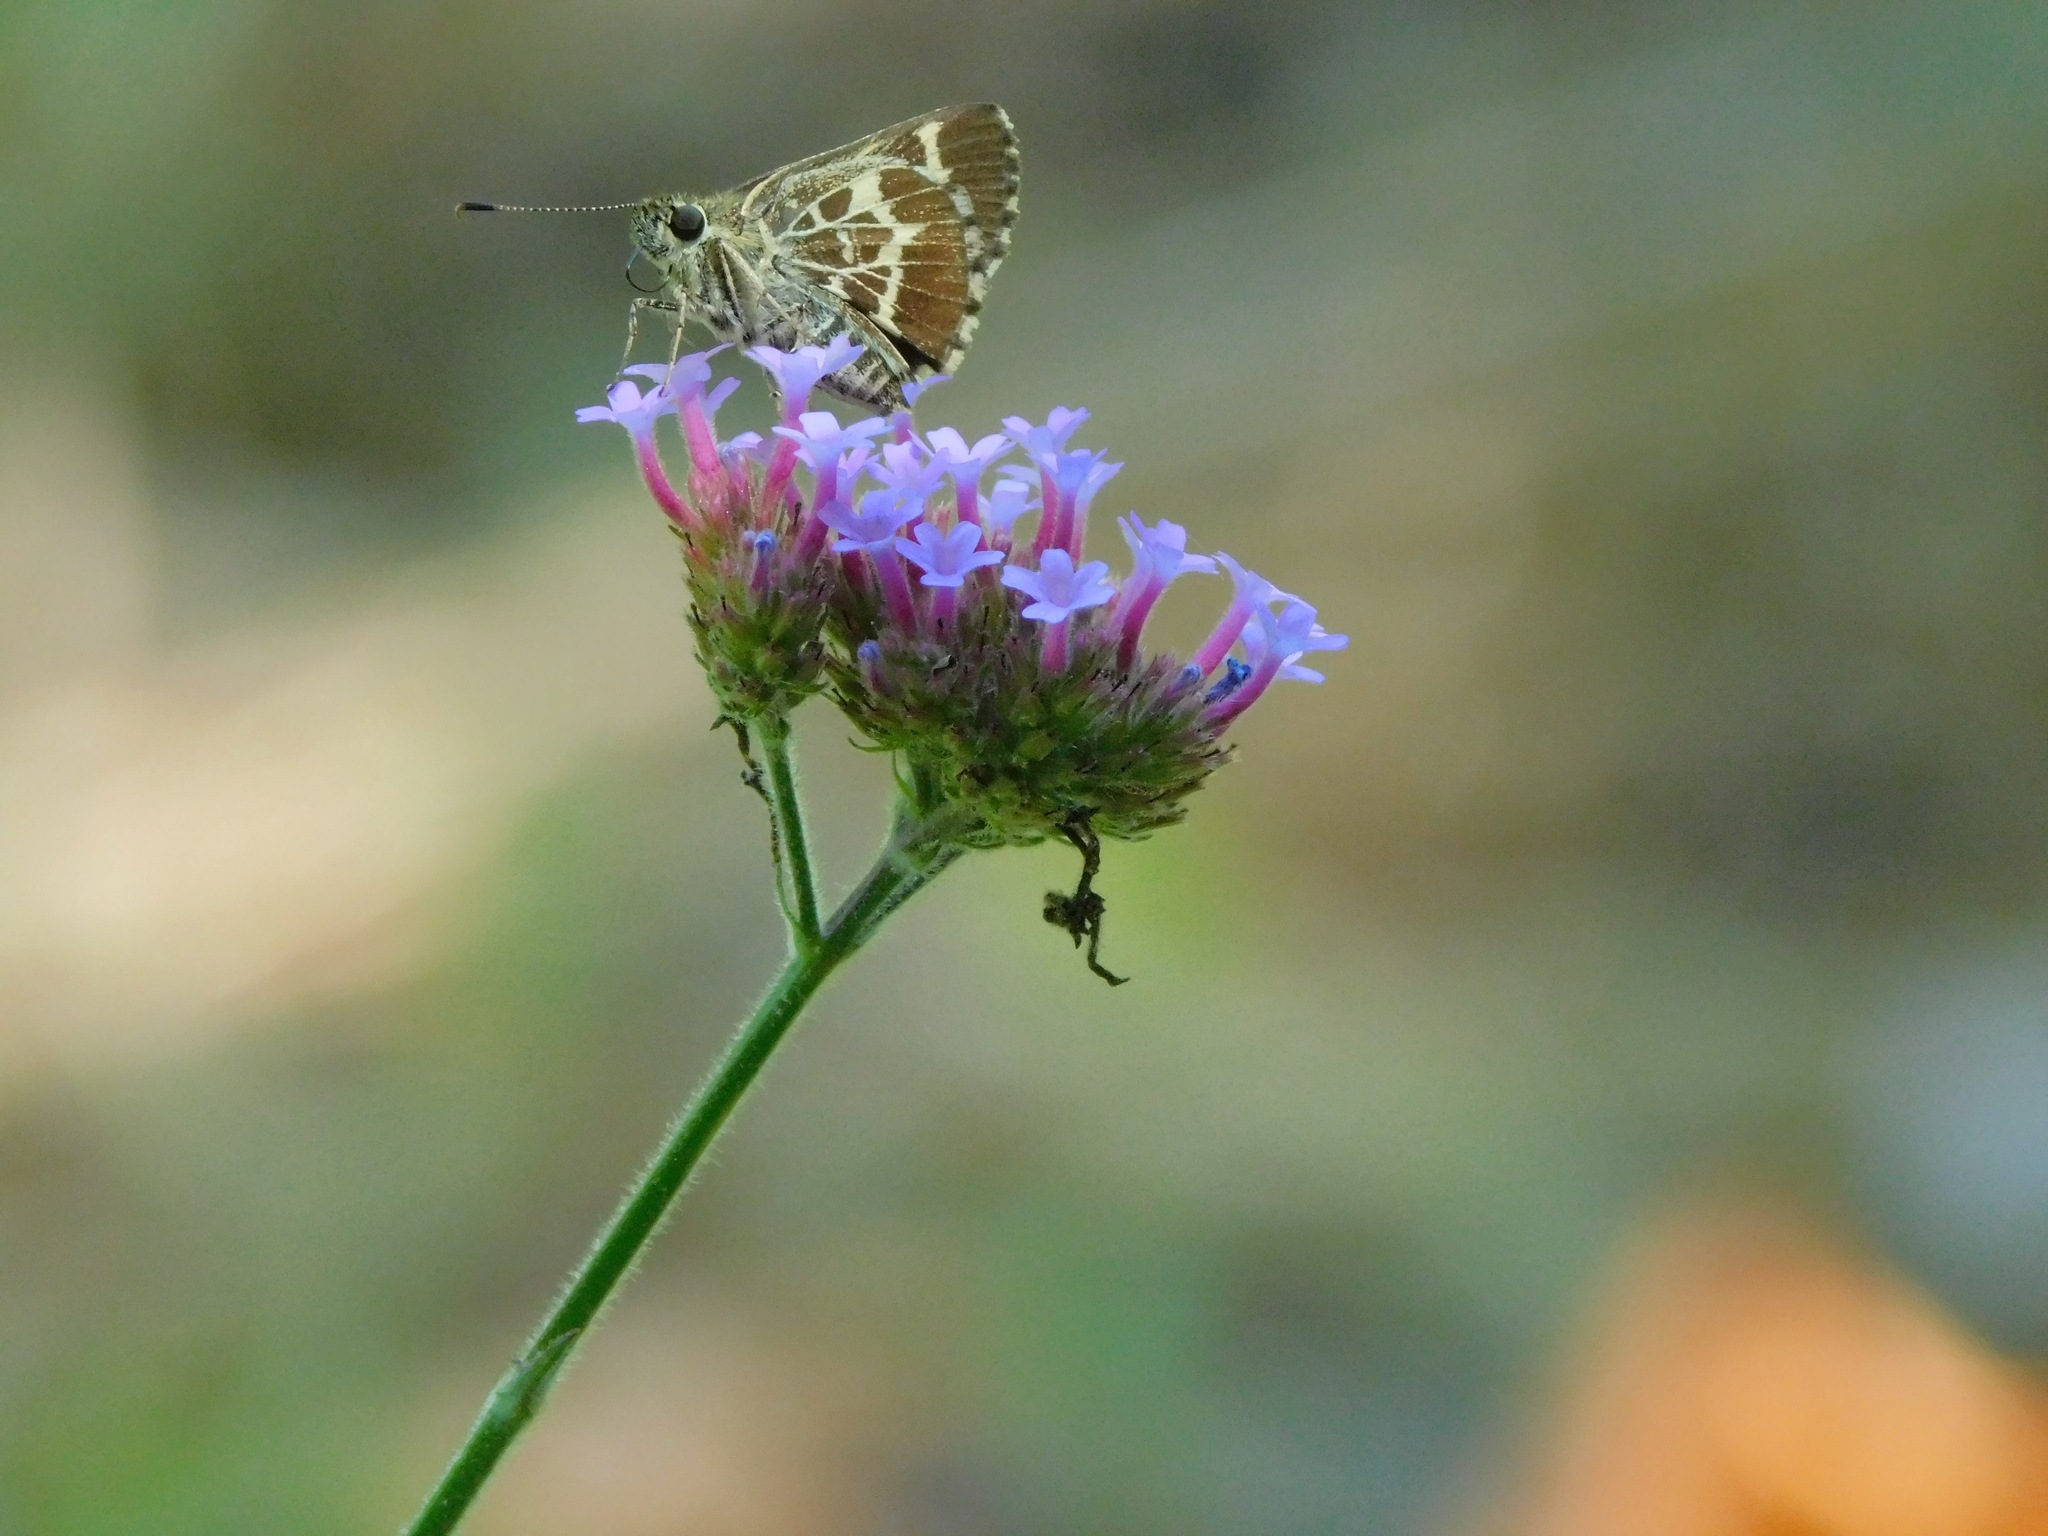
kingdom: Animalia
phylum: Arthropoda
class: Insecta
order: Lepidoptera
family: Hesperiidae
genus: Mastor
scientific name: Mastor aesculapius
